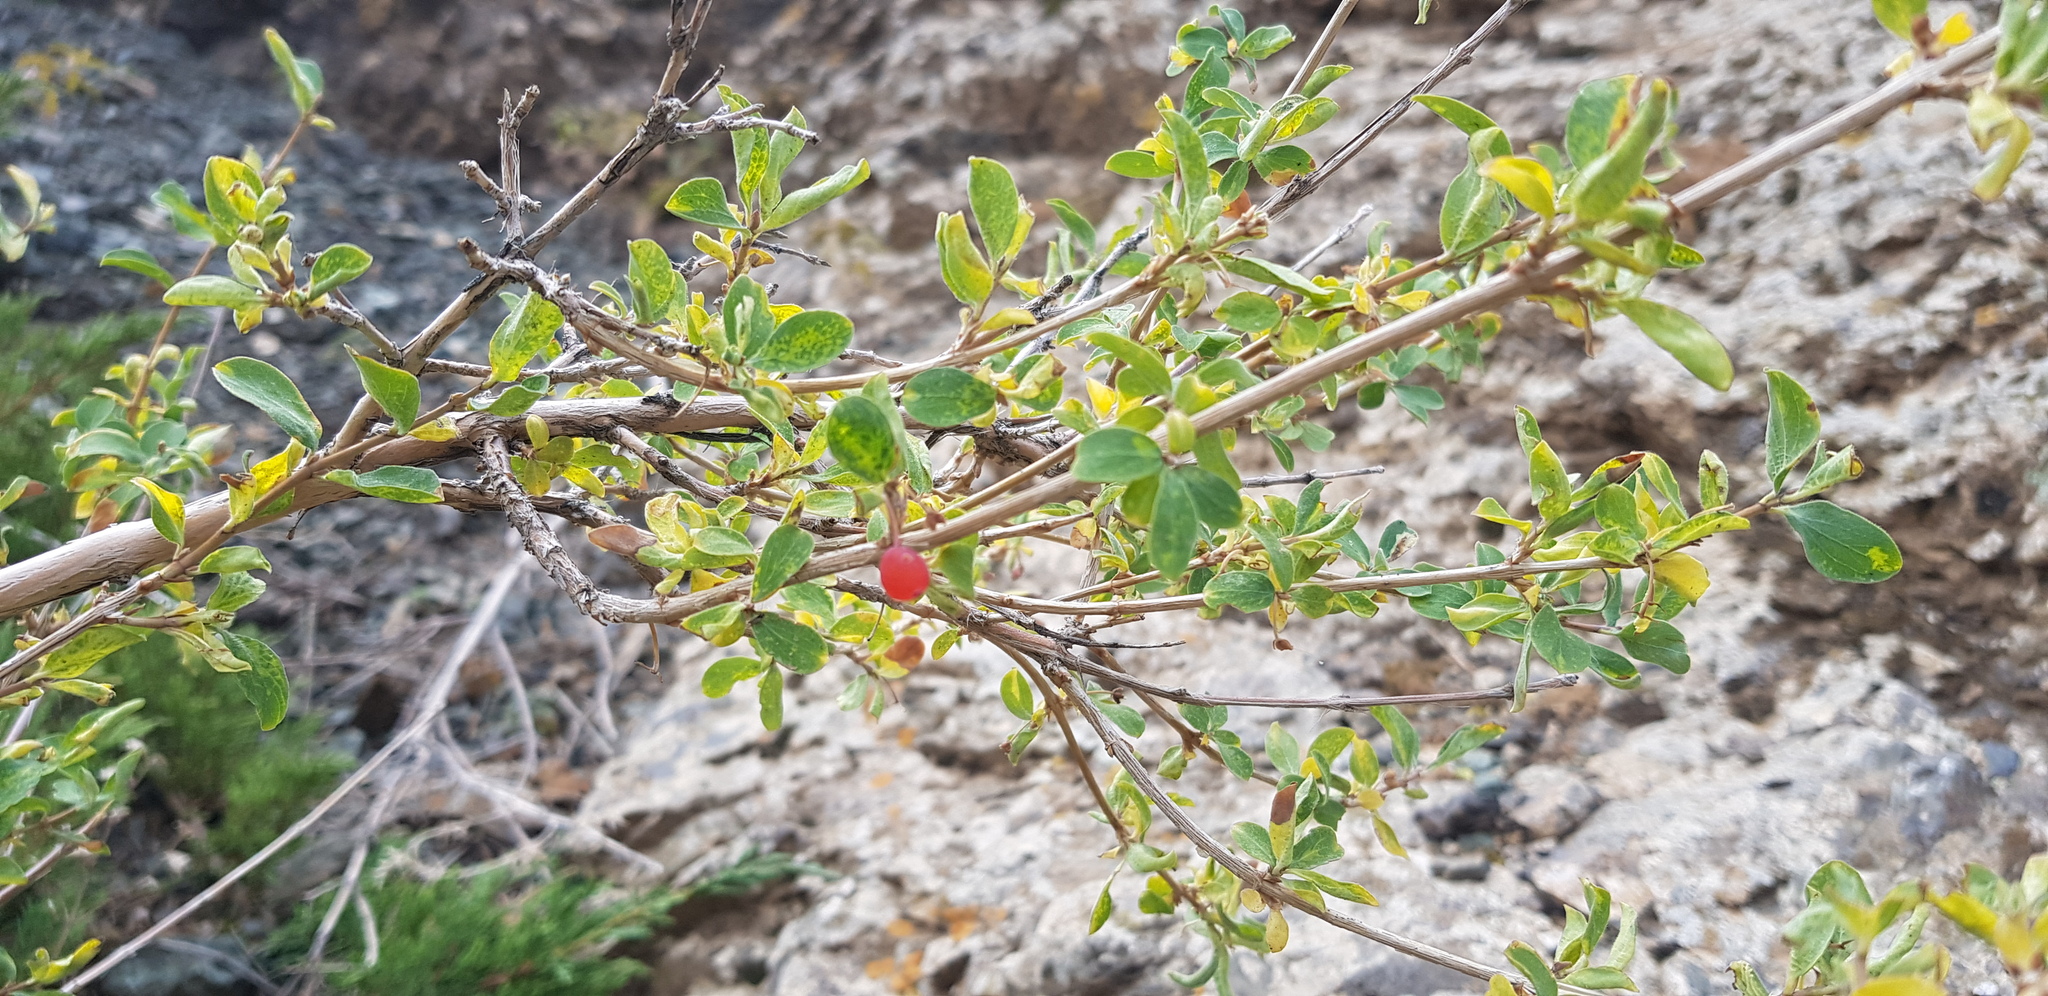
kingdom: Plantae
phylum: Tracheophyta
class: Magnoliopsida
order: Dipsacales
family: Caprifoliaceae
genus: Lonicera
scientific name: Lonicera microphylla
